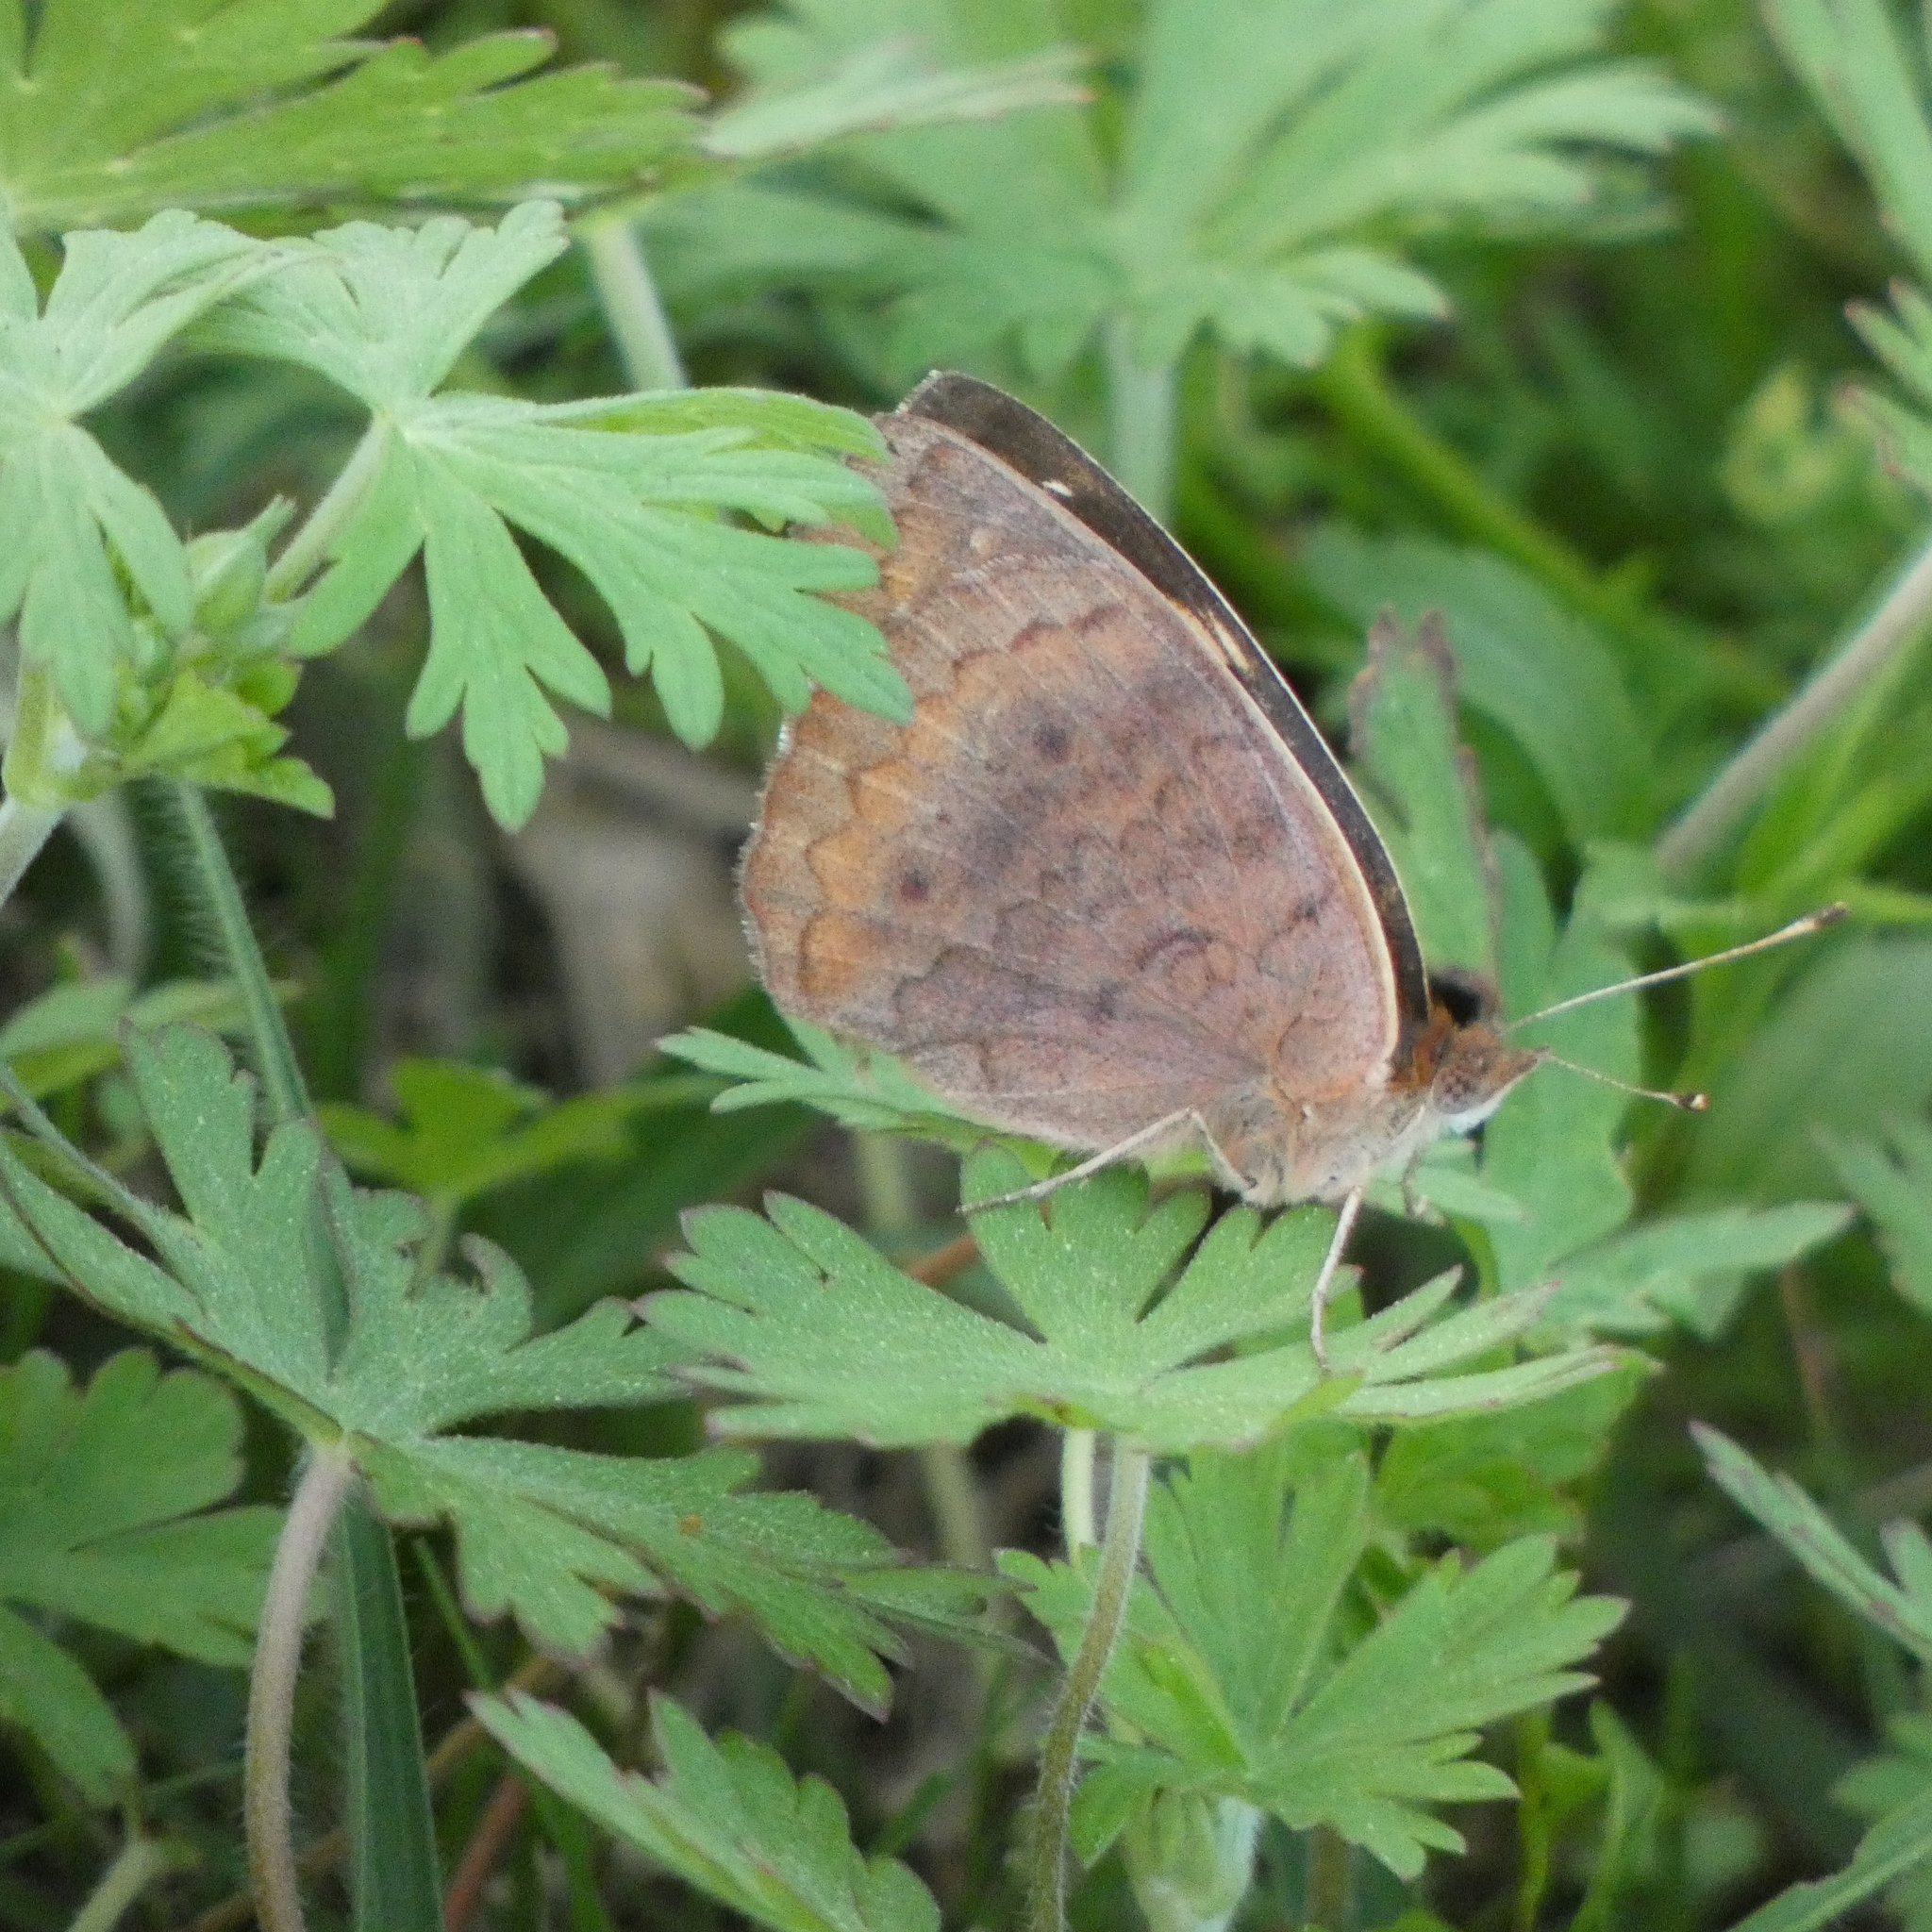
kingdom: Animalia
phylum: Arthropoda
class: Insecta
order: Lepidoptera
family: Nymphalidae
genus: Junonia
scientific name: Junonia coenia
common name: Common buckeye
